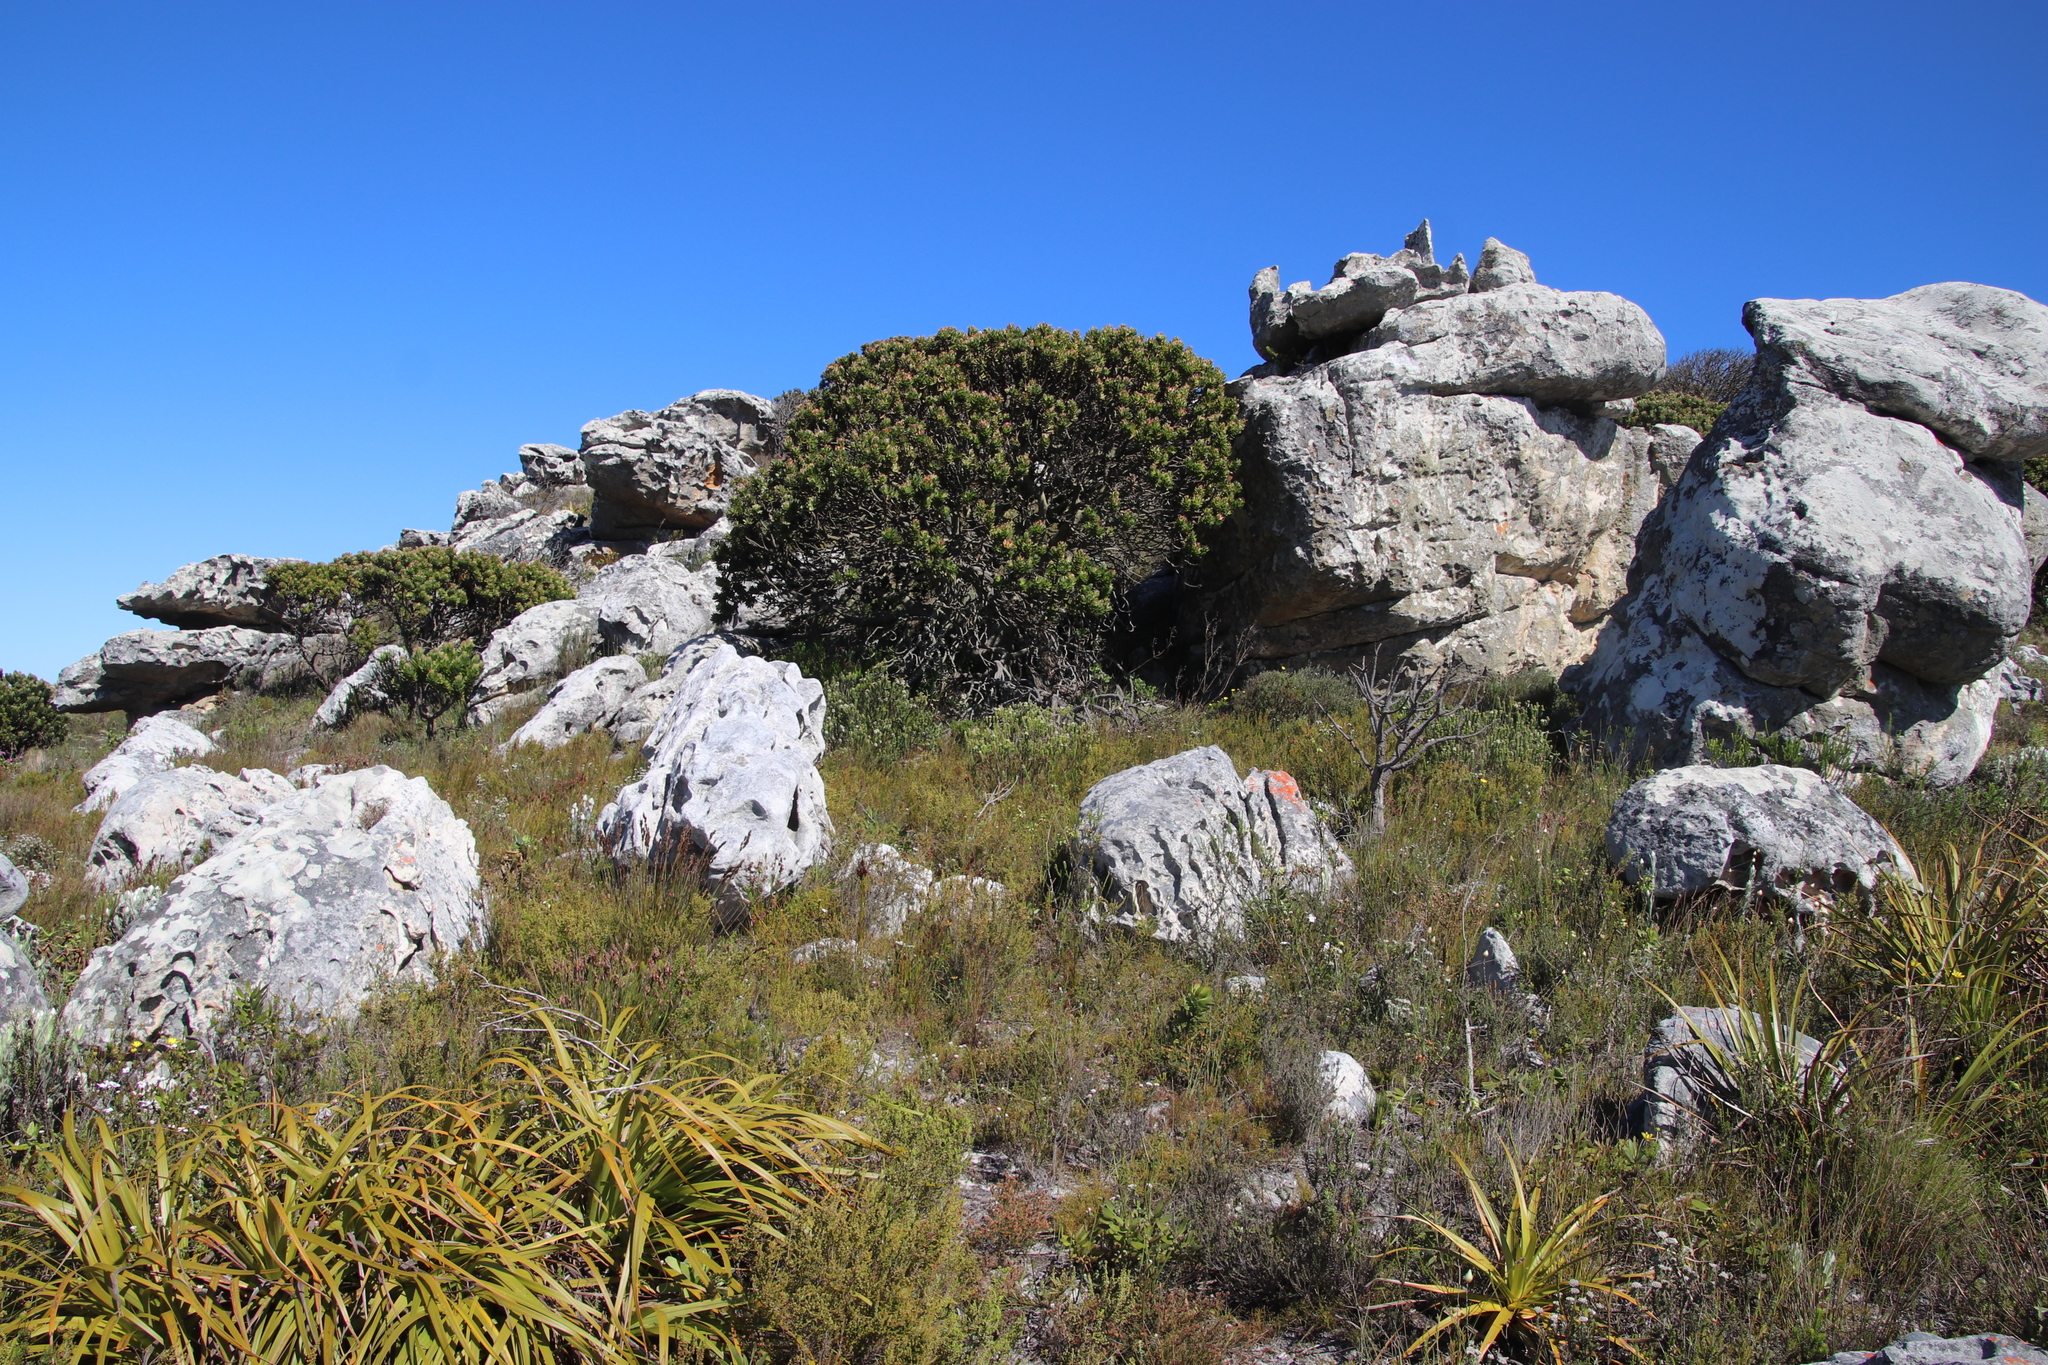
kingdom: Plantae
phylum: Tracheophyta
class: Magnoliopsida
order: Proteales
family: Proteaceae
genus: Mimetes
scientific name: Mimetes fimbriifolius
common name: Fringed bottlebrush
